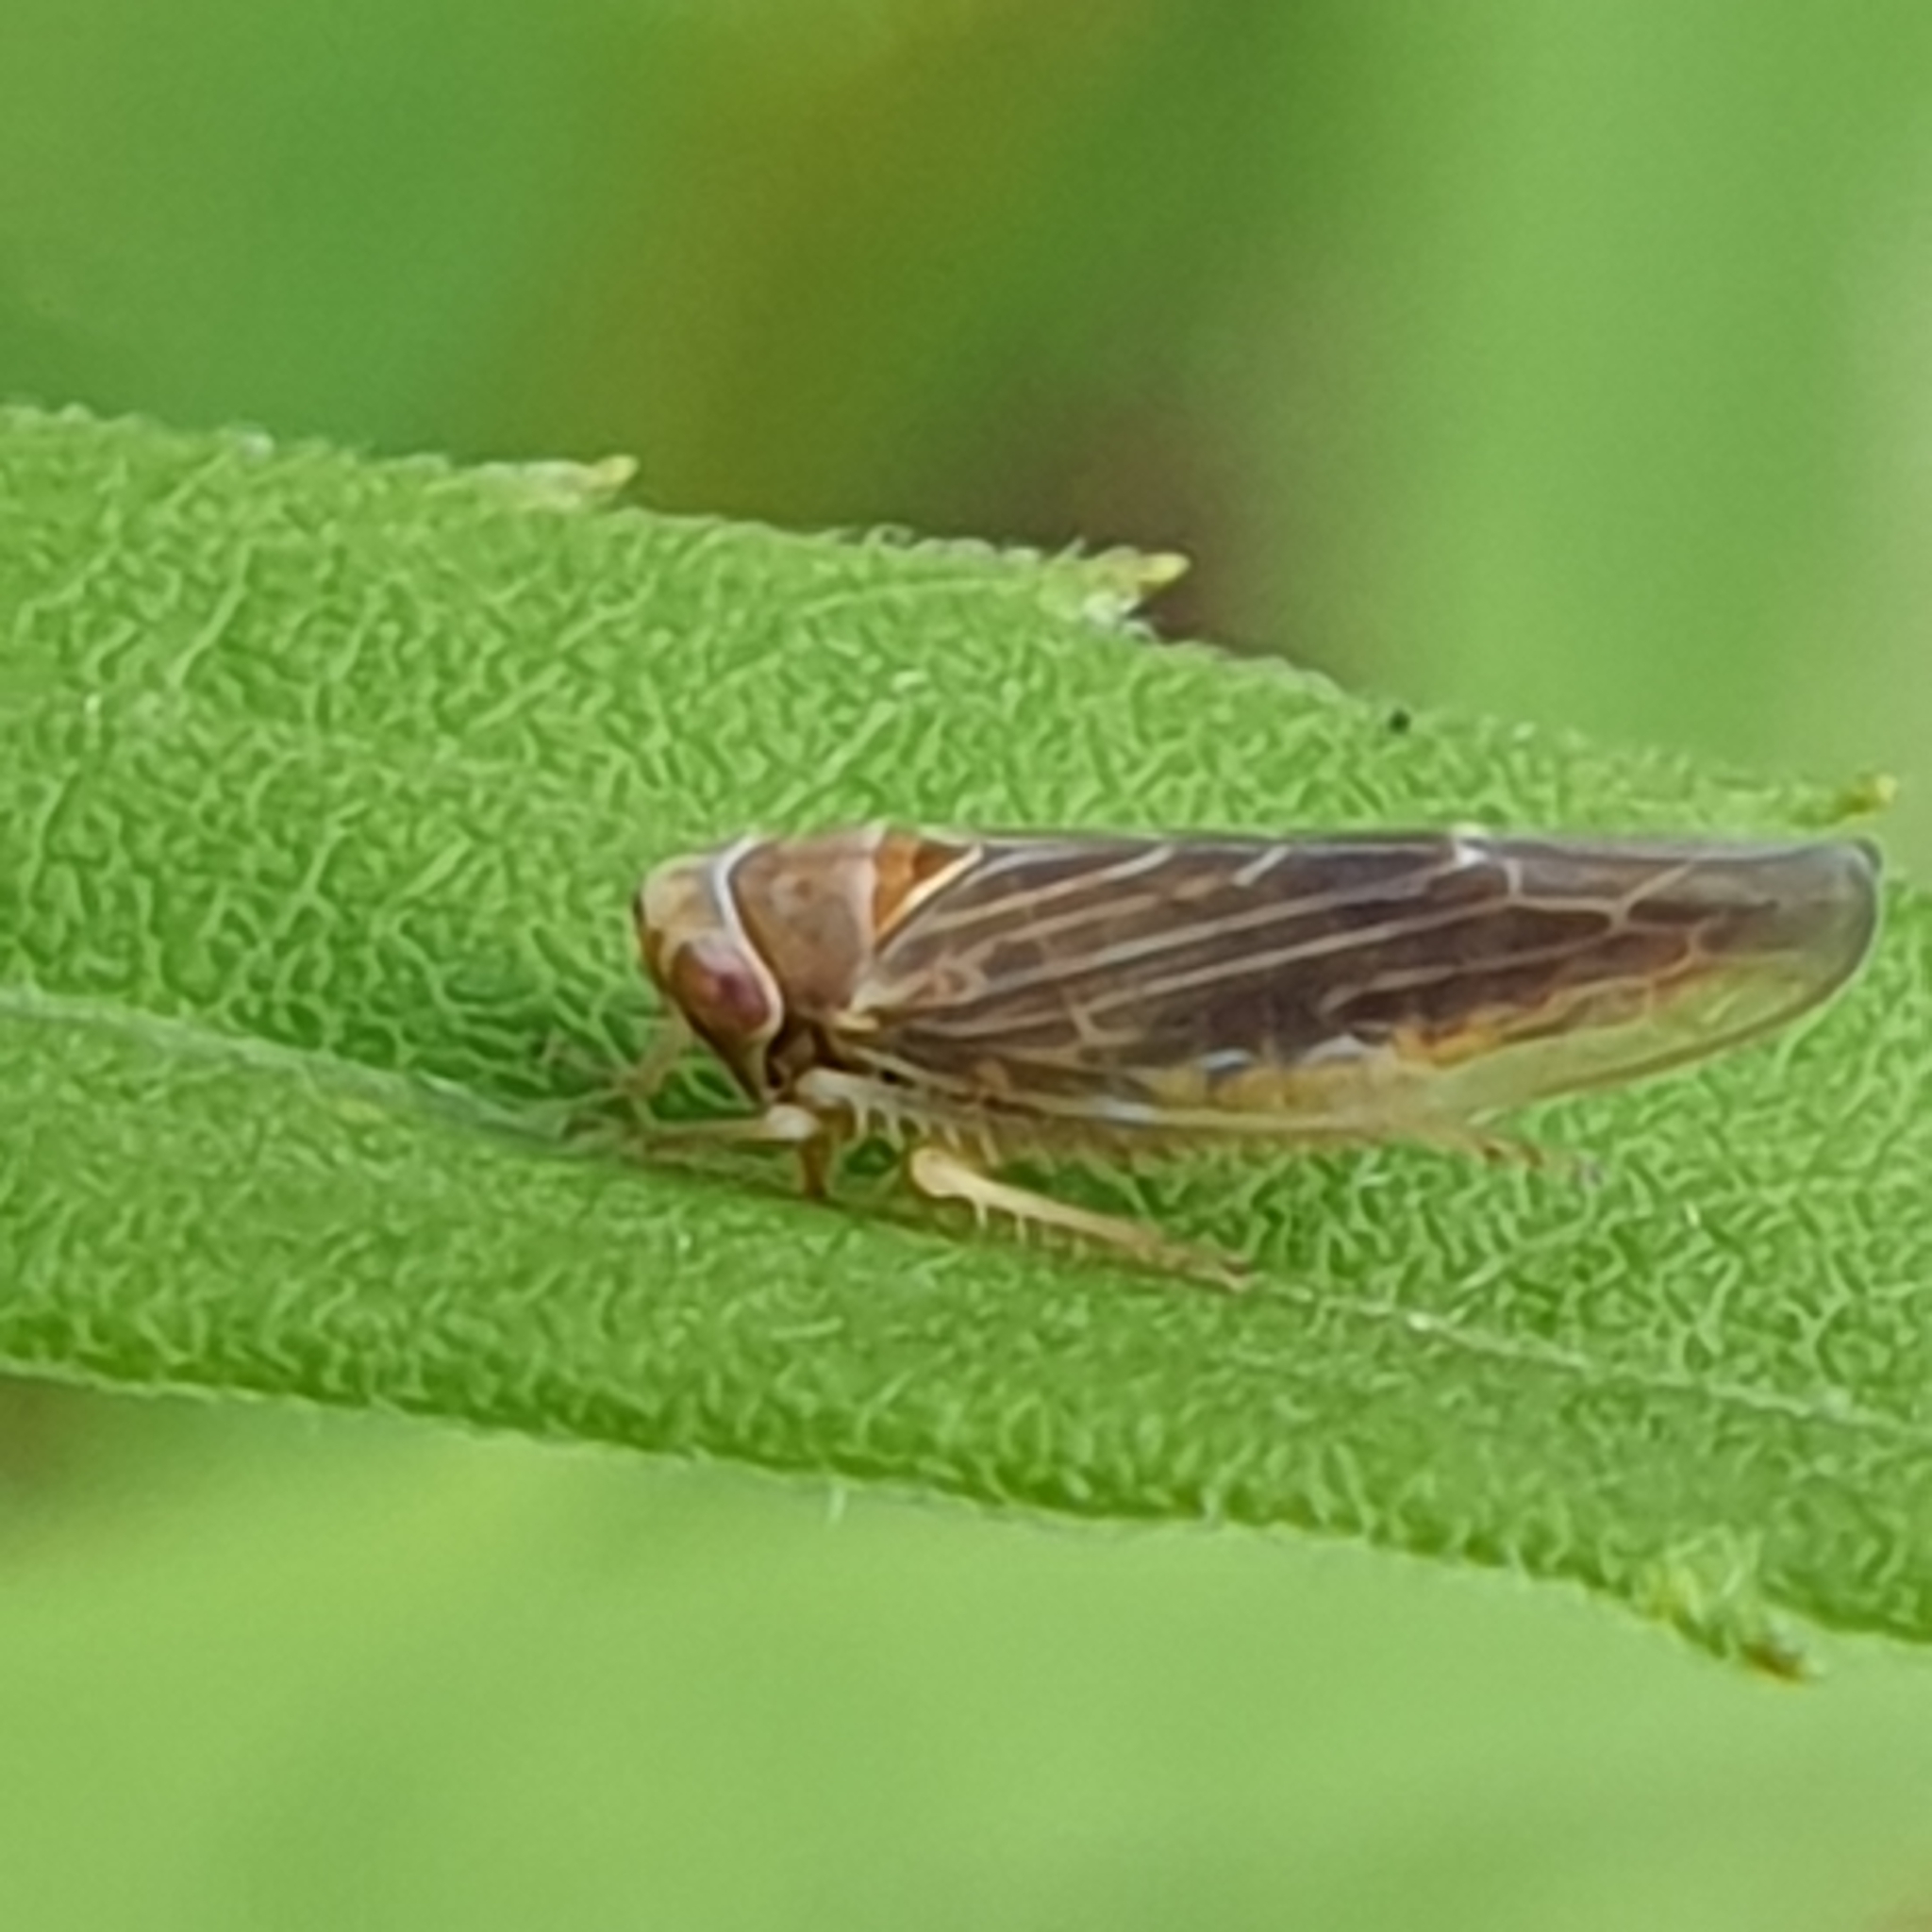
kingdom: Animalia
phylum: Arthropoda
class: Insecta
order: Hemiptera
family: Cicadellidae
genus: Idiodonus
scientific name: Idiodonus cruentatus
